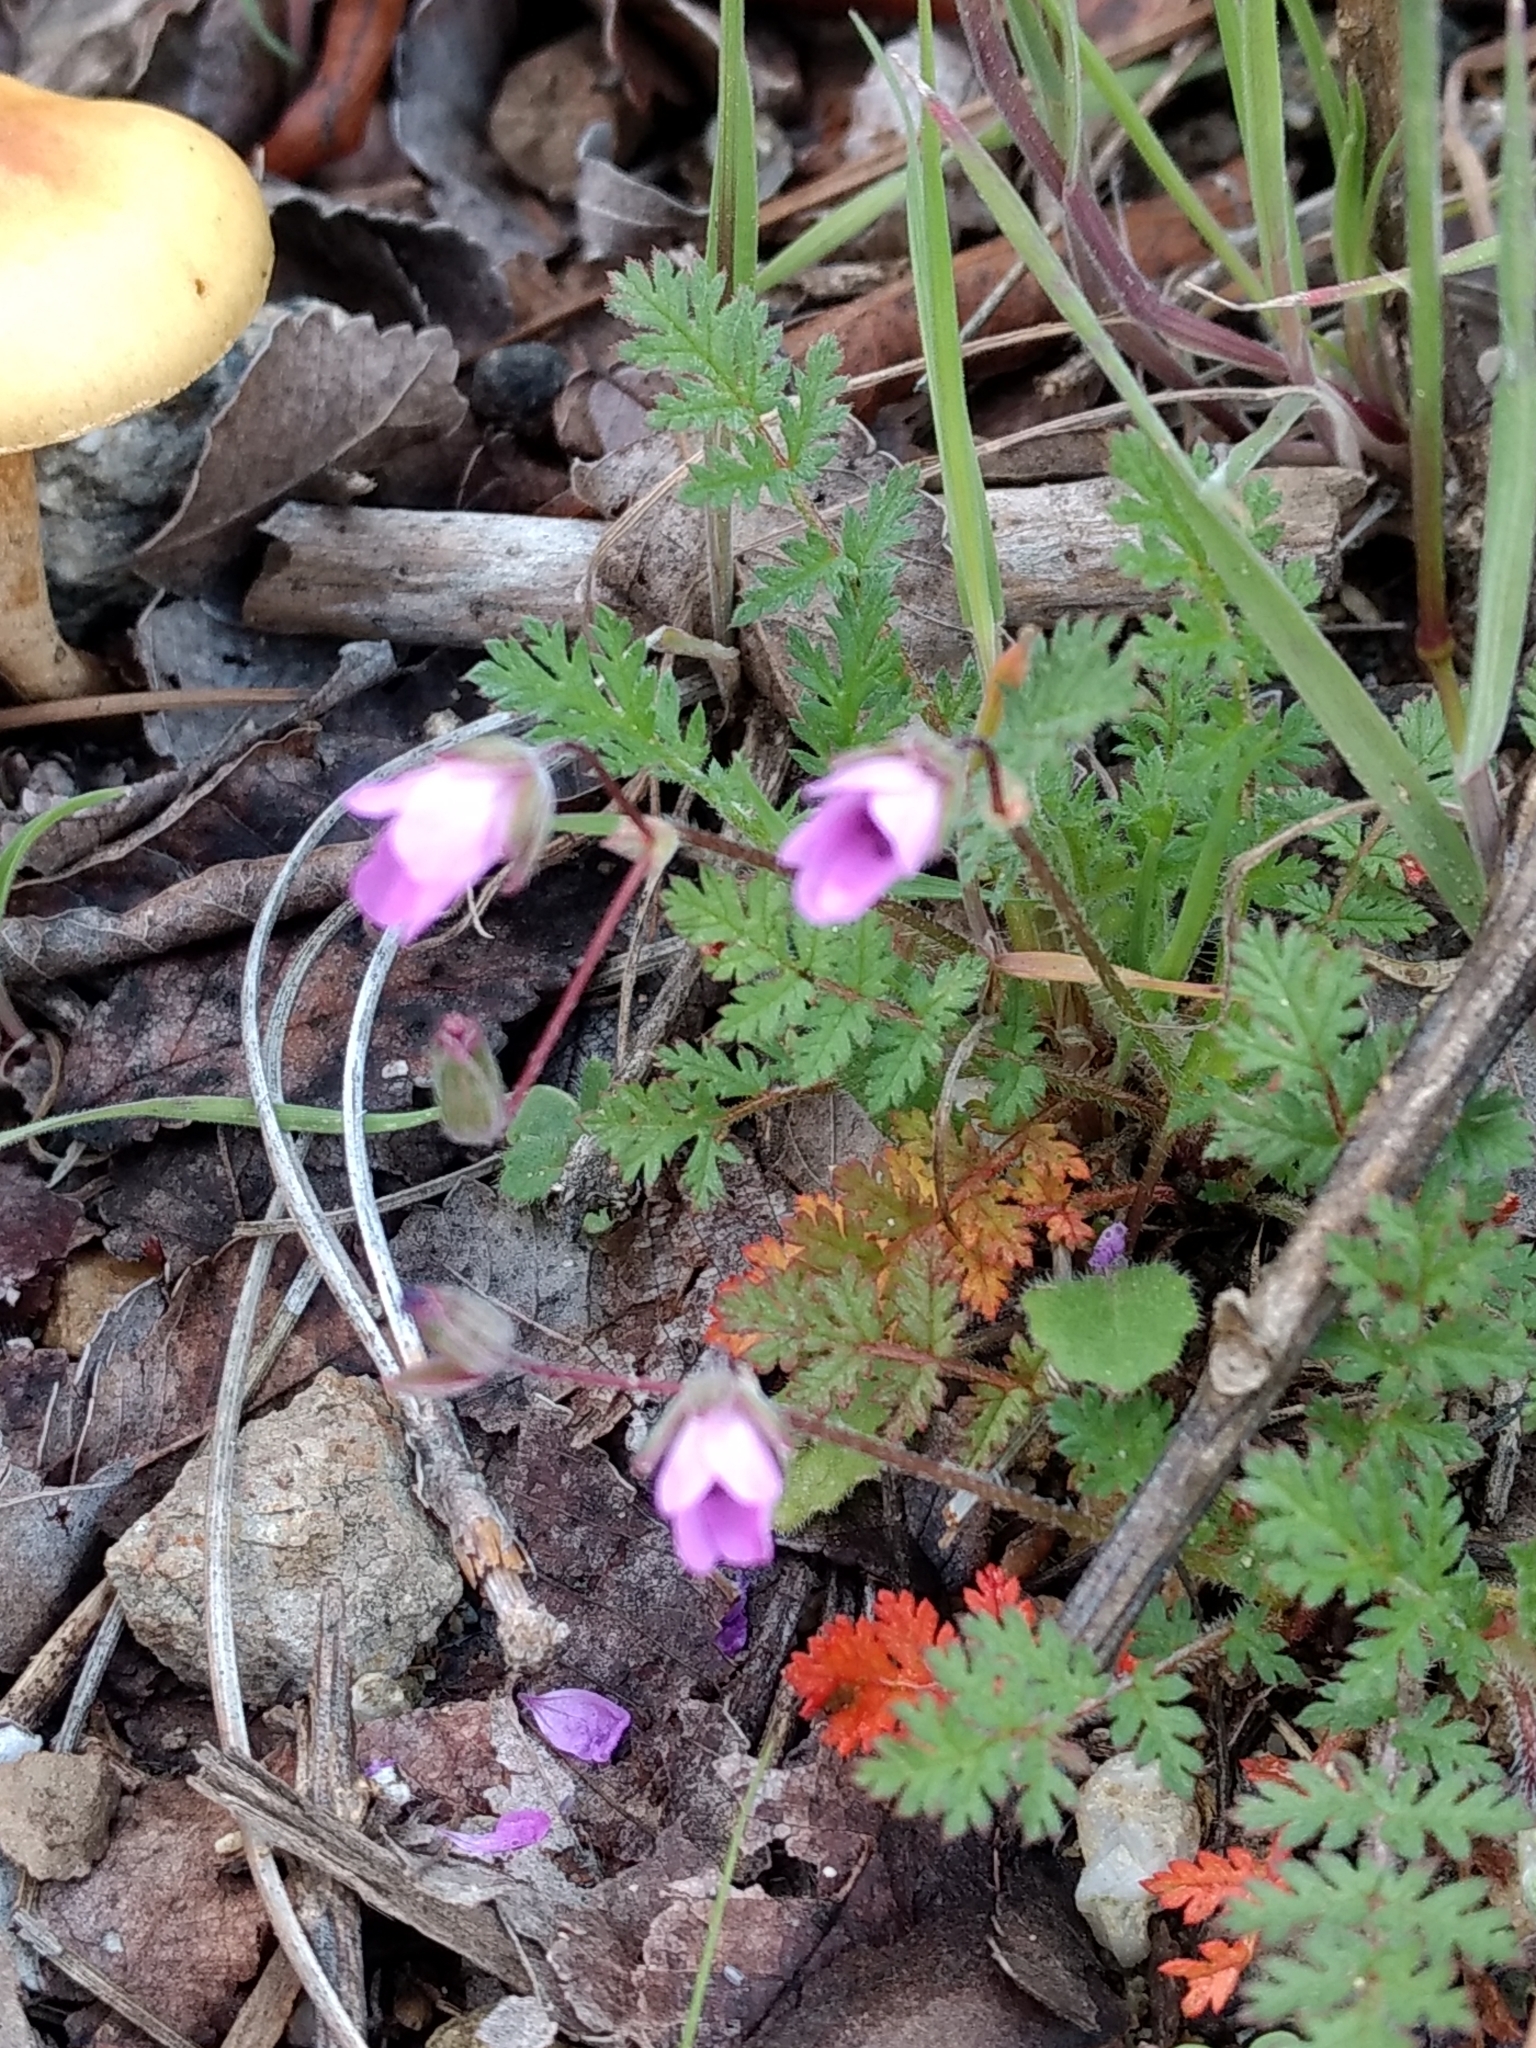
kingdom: Plantae
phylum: Tracheophyta
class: Magnoliopsida
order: Geraniales
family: Geraniaceae
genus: Erodium
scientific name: Erodium cicutarium
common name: Common stork's-bill
